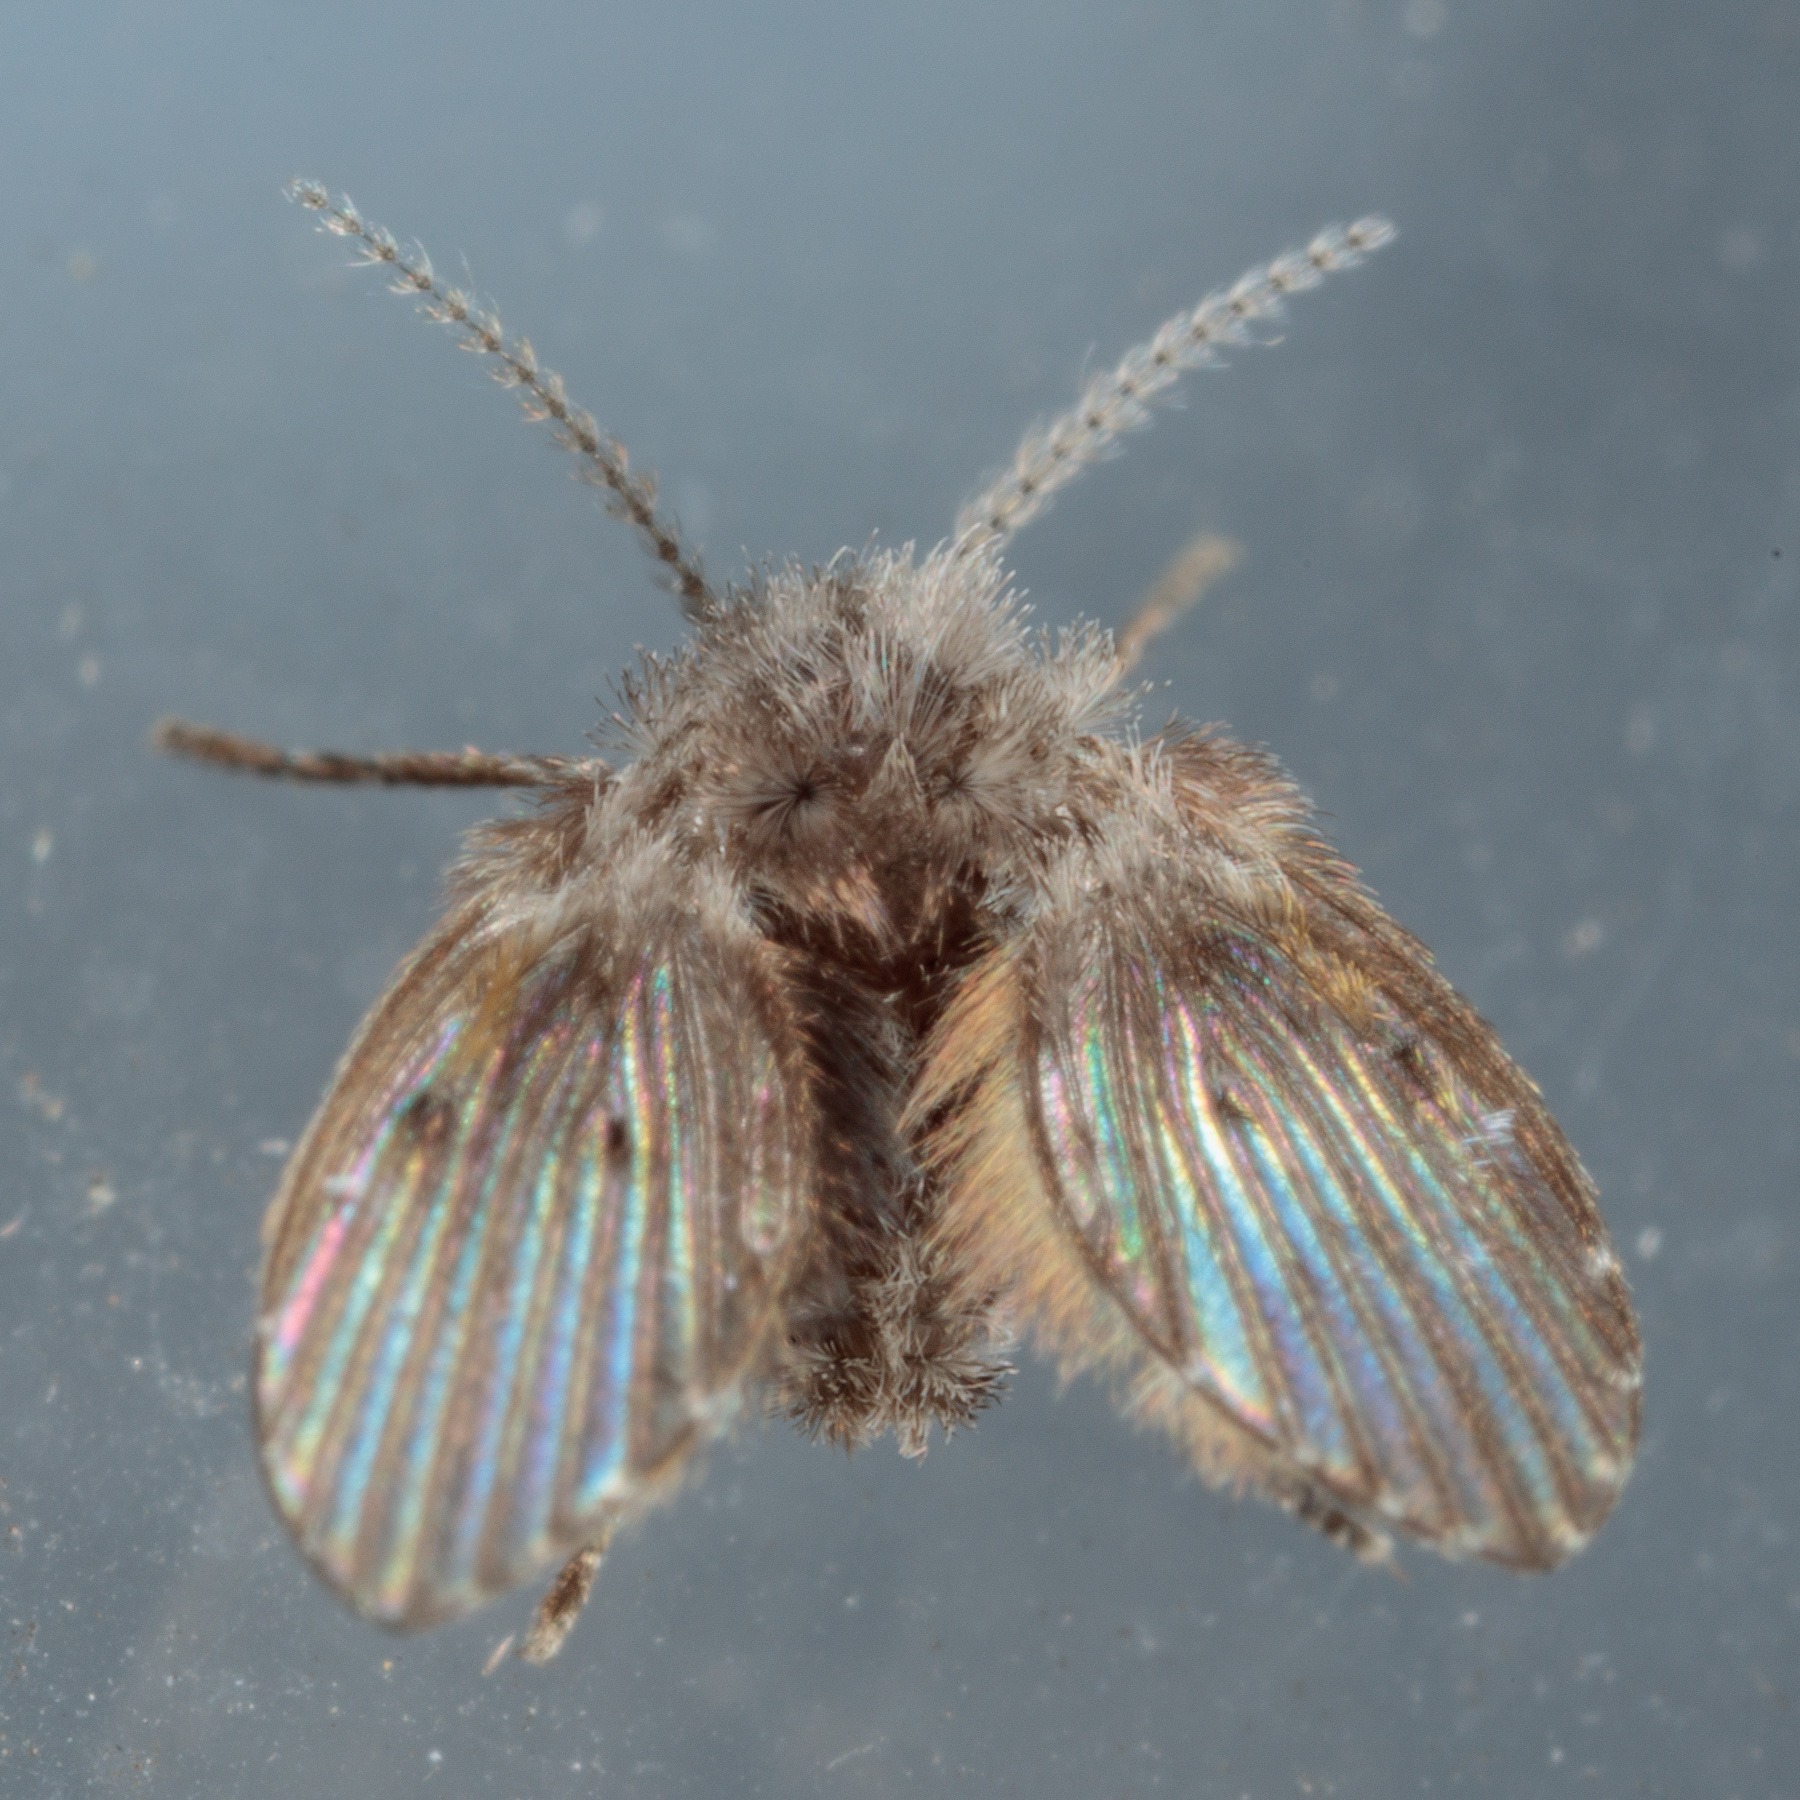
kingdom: Animalia
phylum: Arthropoda
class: Insecta
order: Diptera
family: Psychodidae
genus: Clogmia
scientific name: Clogmia albipunctatus
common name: White-spotted moth fly
